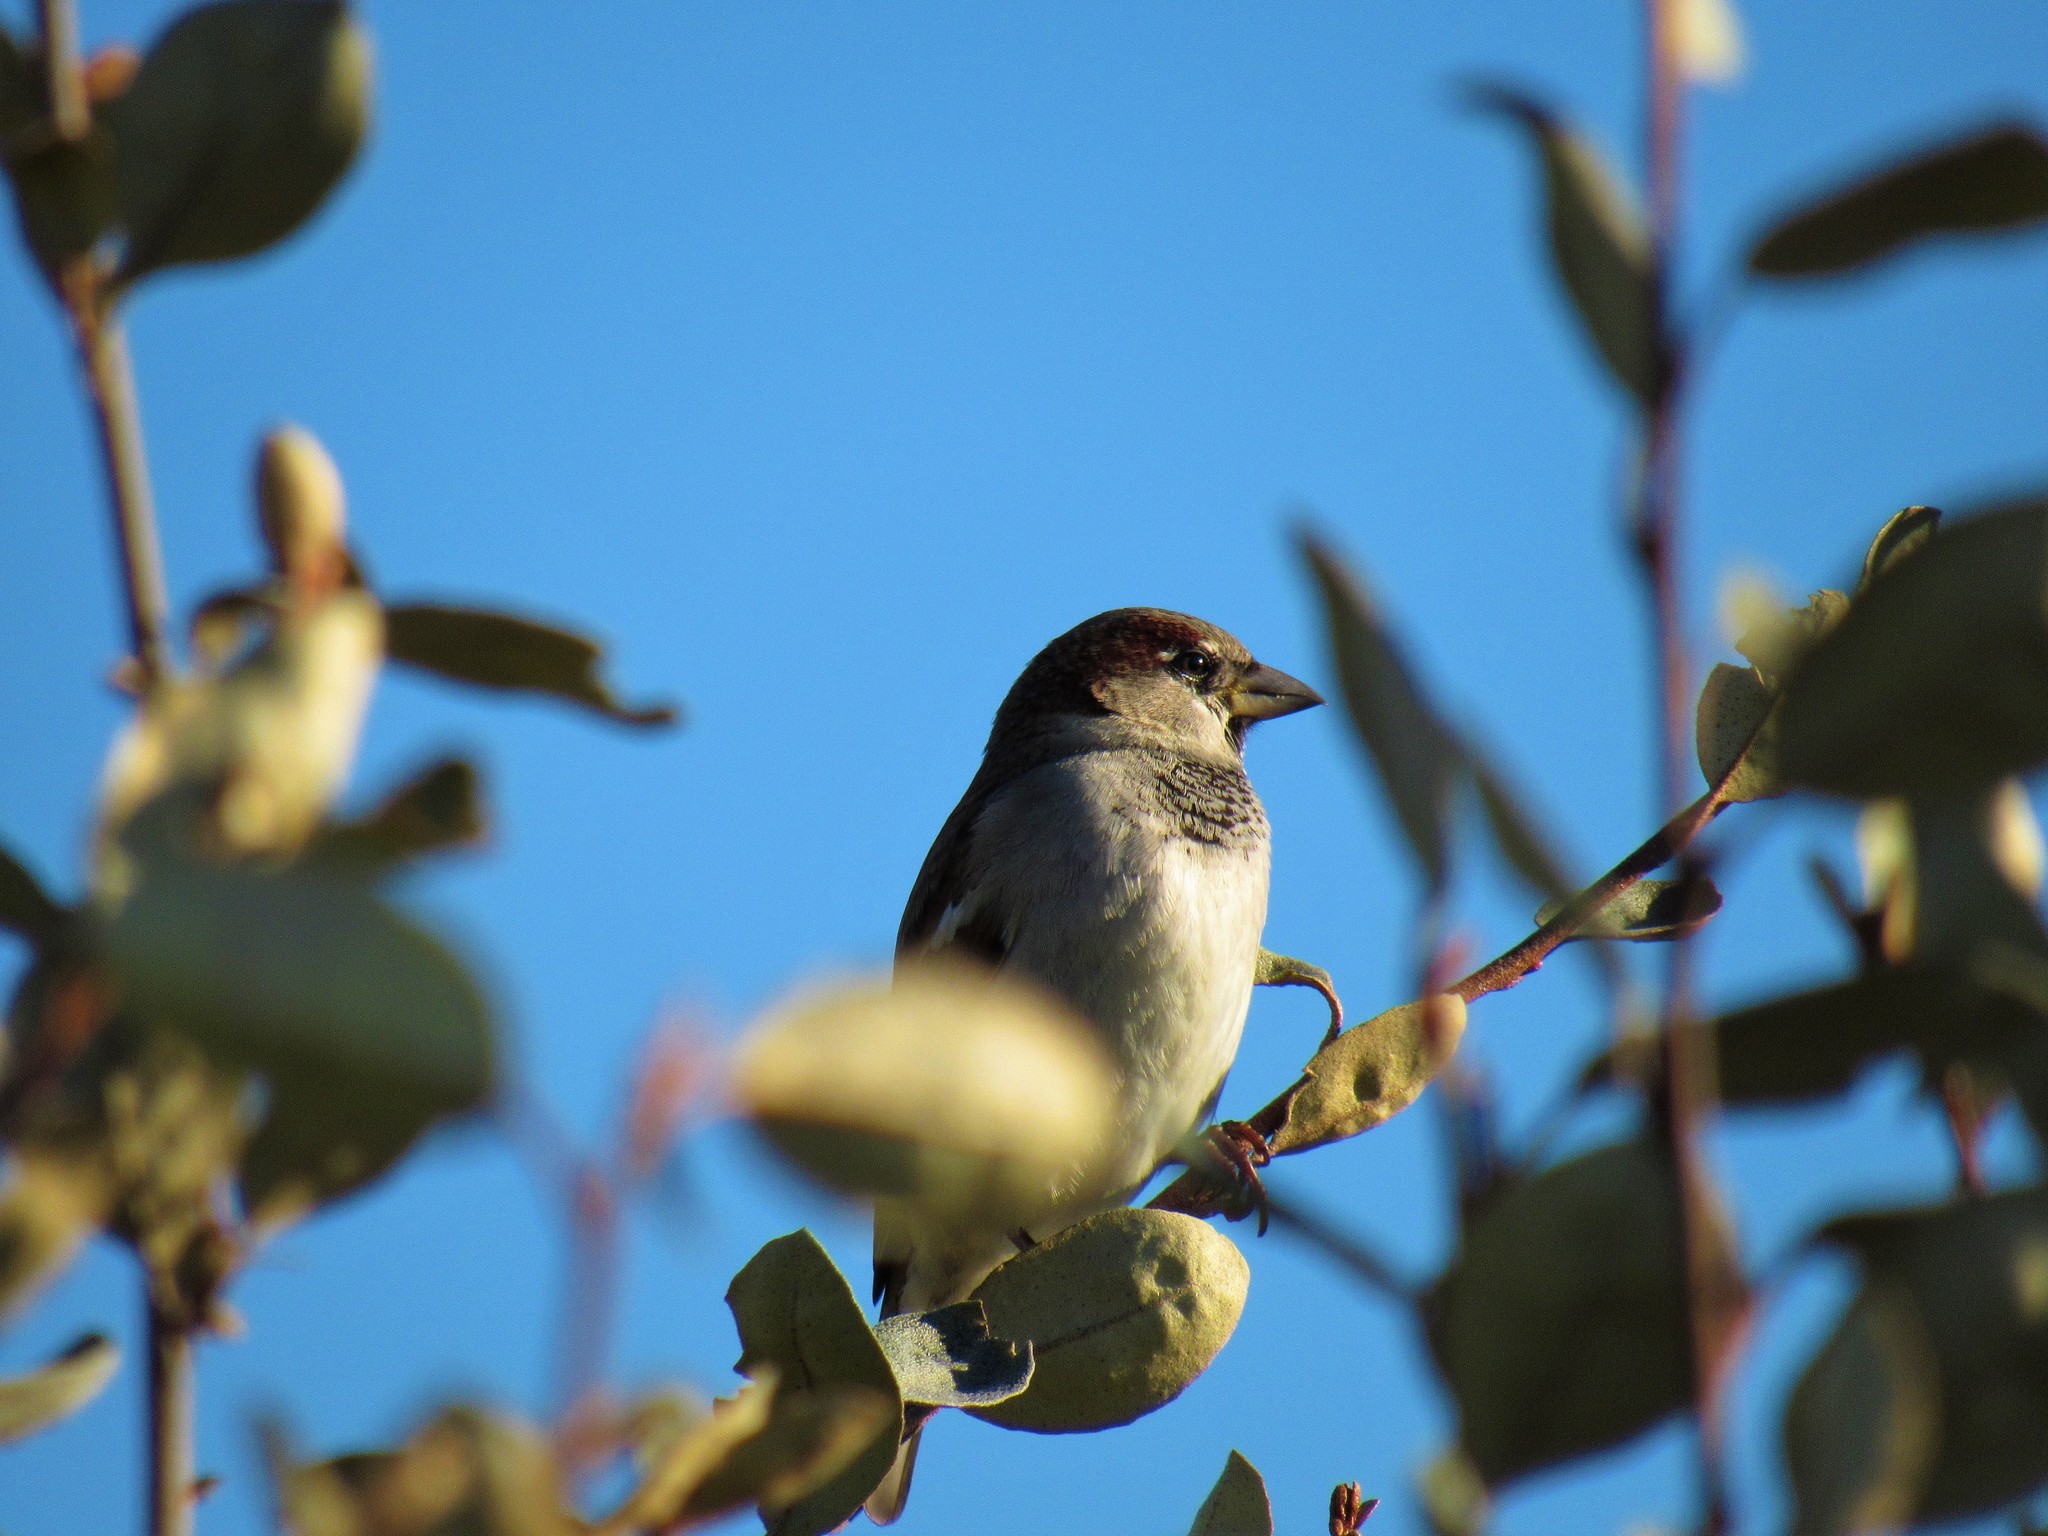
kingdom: Animalia
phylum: Chordata
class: Aves
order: Passeriformes
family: Passeridae
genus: Passer
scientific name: Passer domesticus
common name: House sparrow
